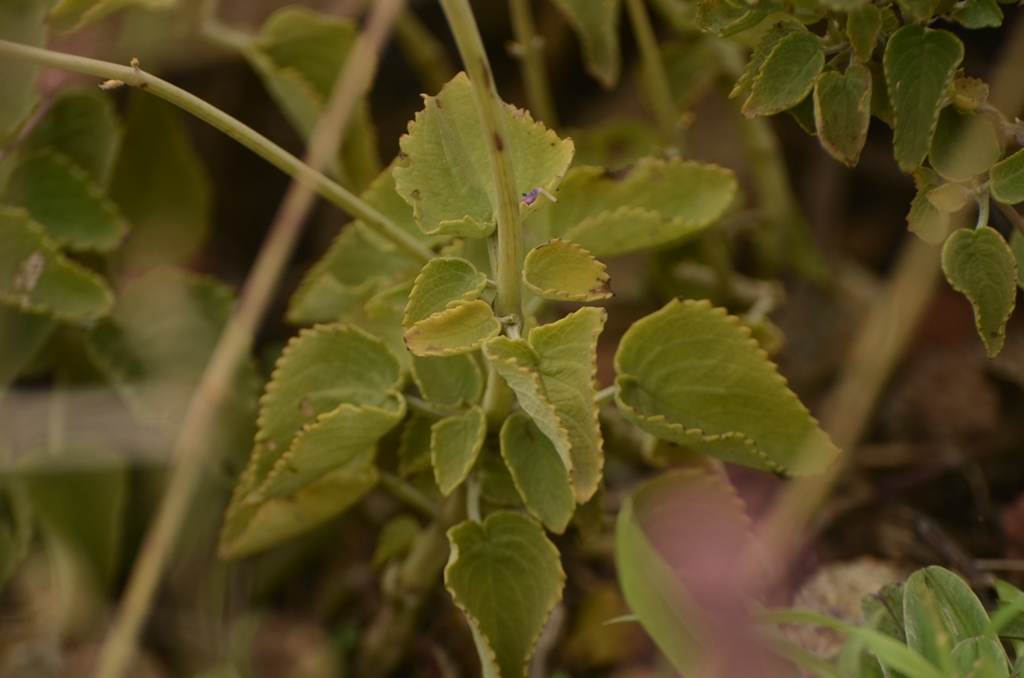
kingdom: Plantae
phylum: Tracheophyta
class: Magnoliopsida
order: Lamiales
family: Lamiaceae
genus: Coleus
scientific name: Coleus strobilifer
